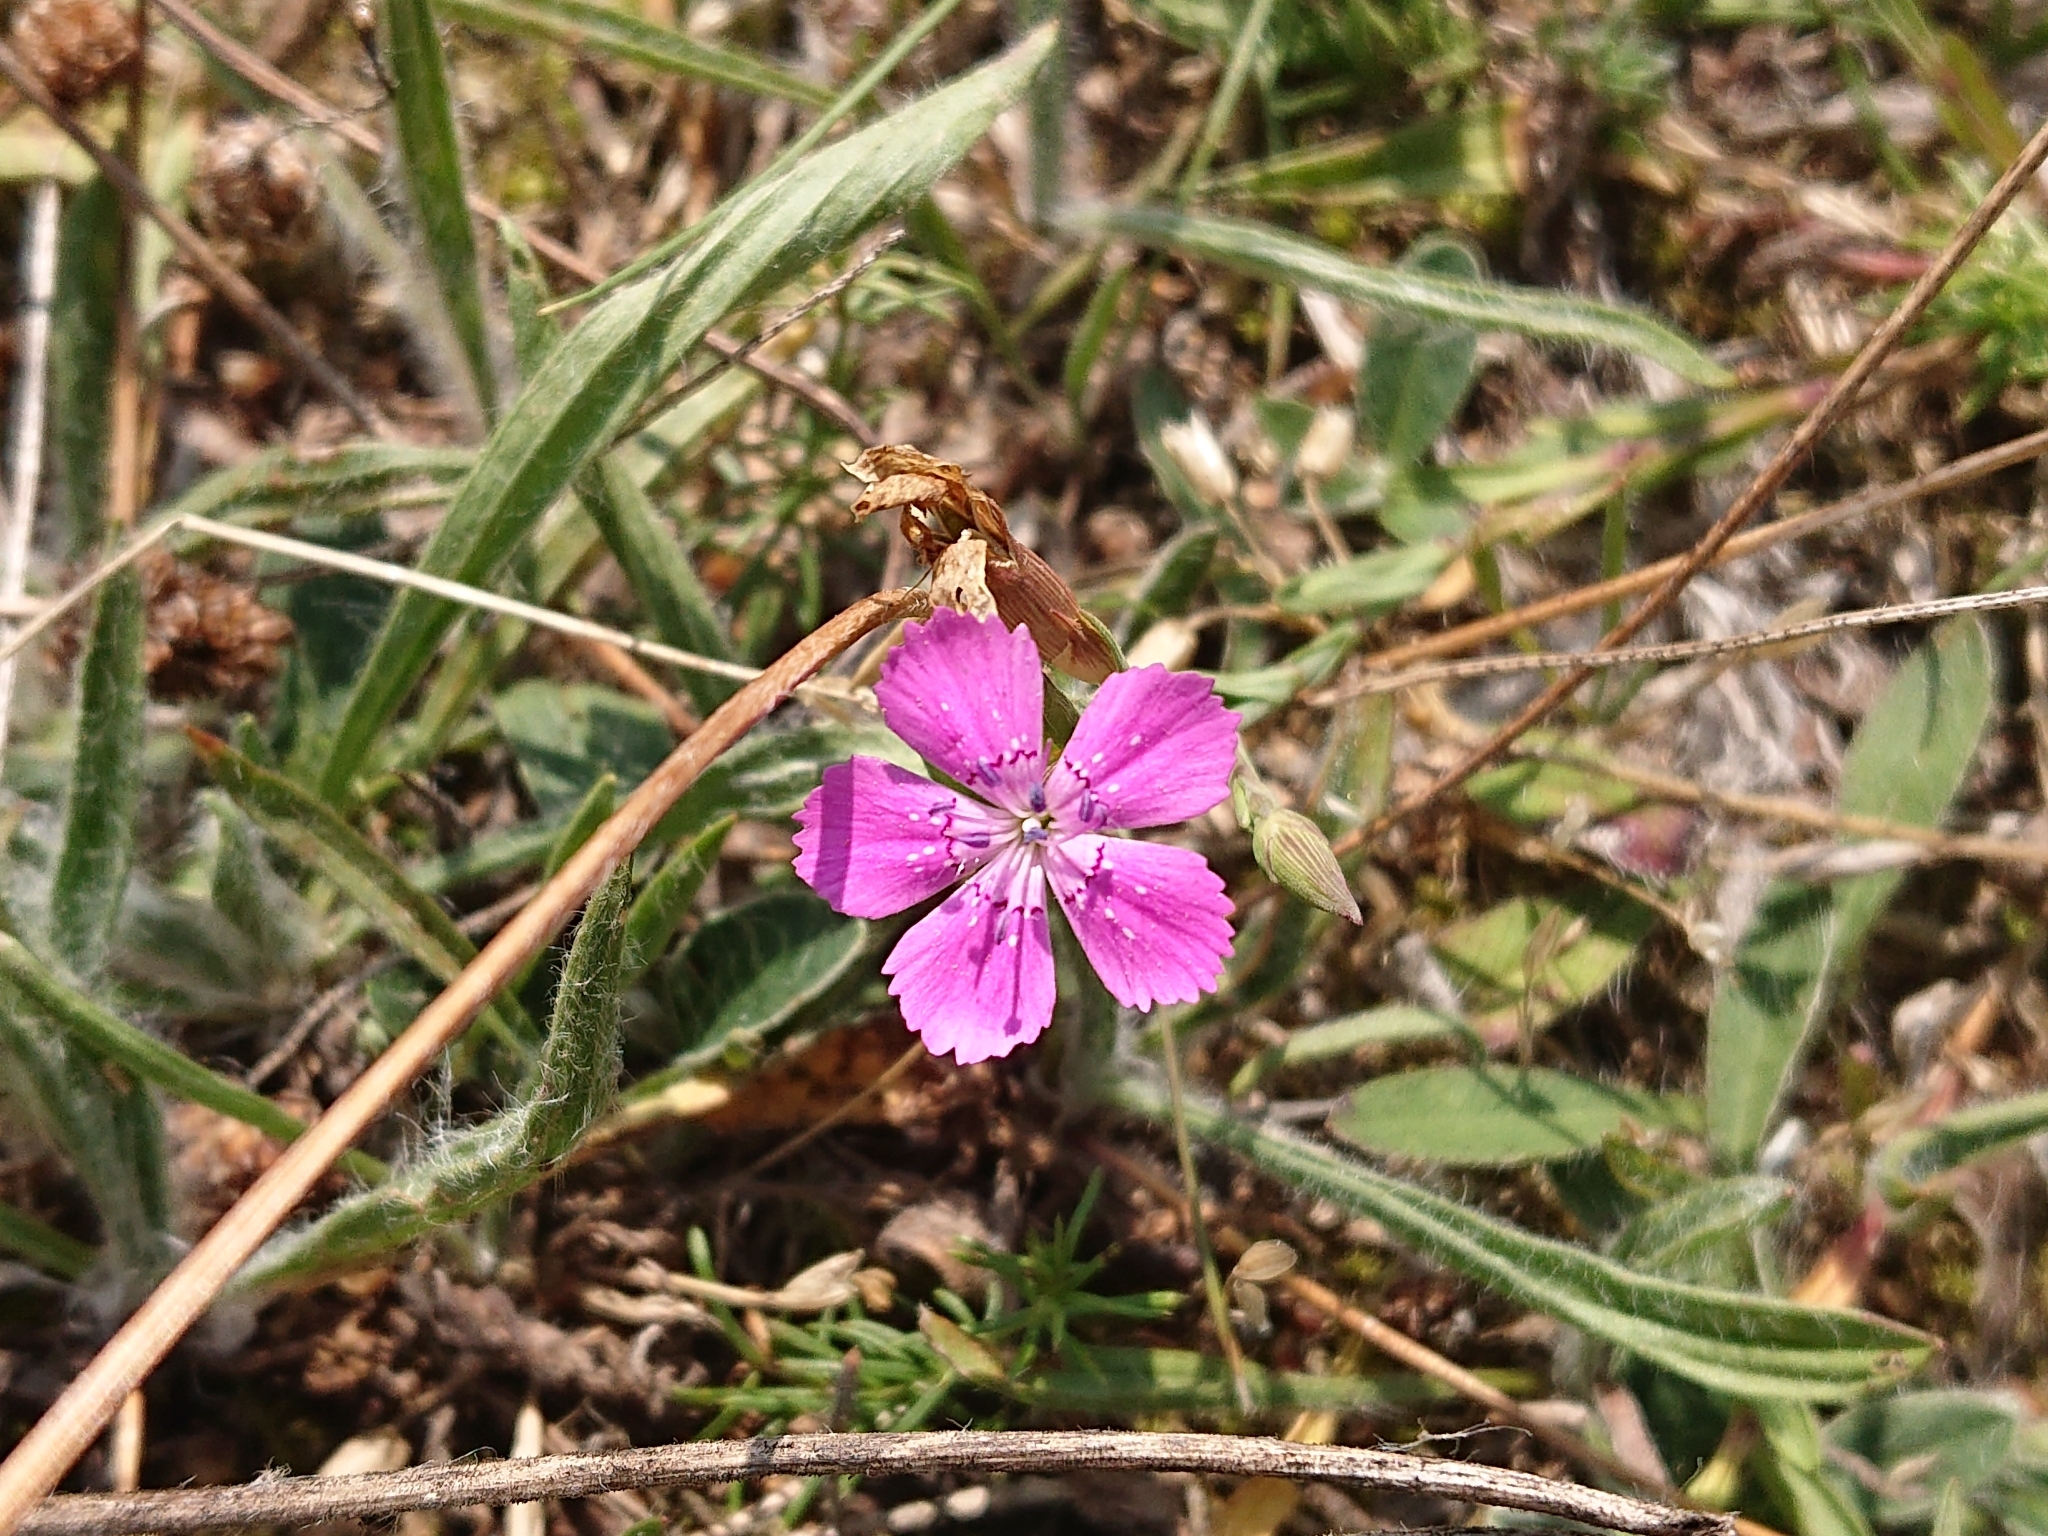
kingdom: Plantae
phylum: Tracheophyta
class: Magnoliopsida
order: Caryophyllales
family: Caryophyllaceae
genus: Dianthus
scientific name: Dianthus deltoides
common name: Maiden pink
